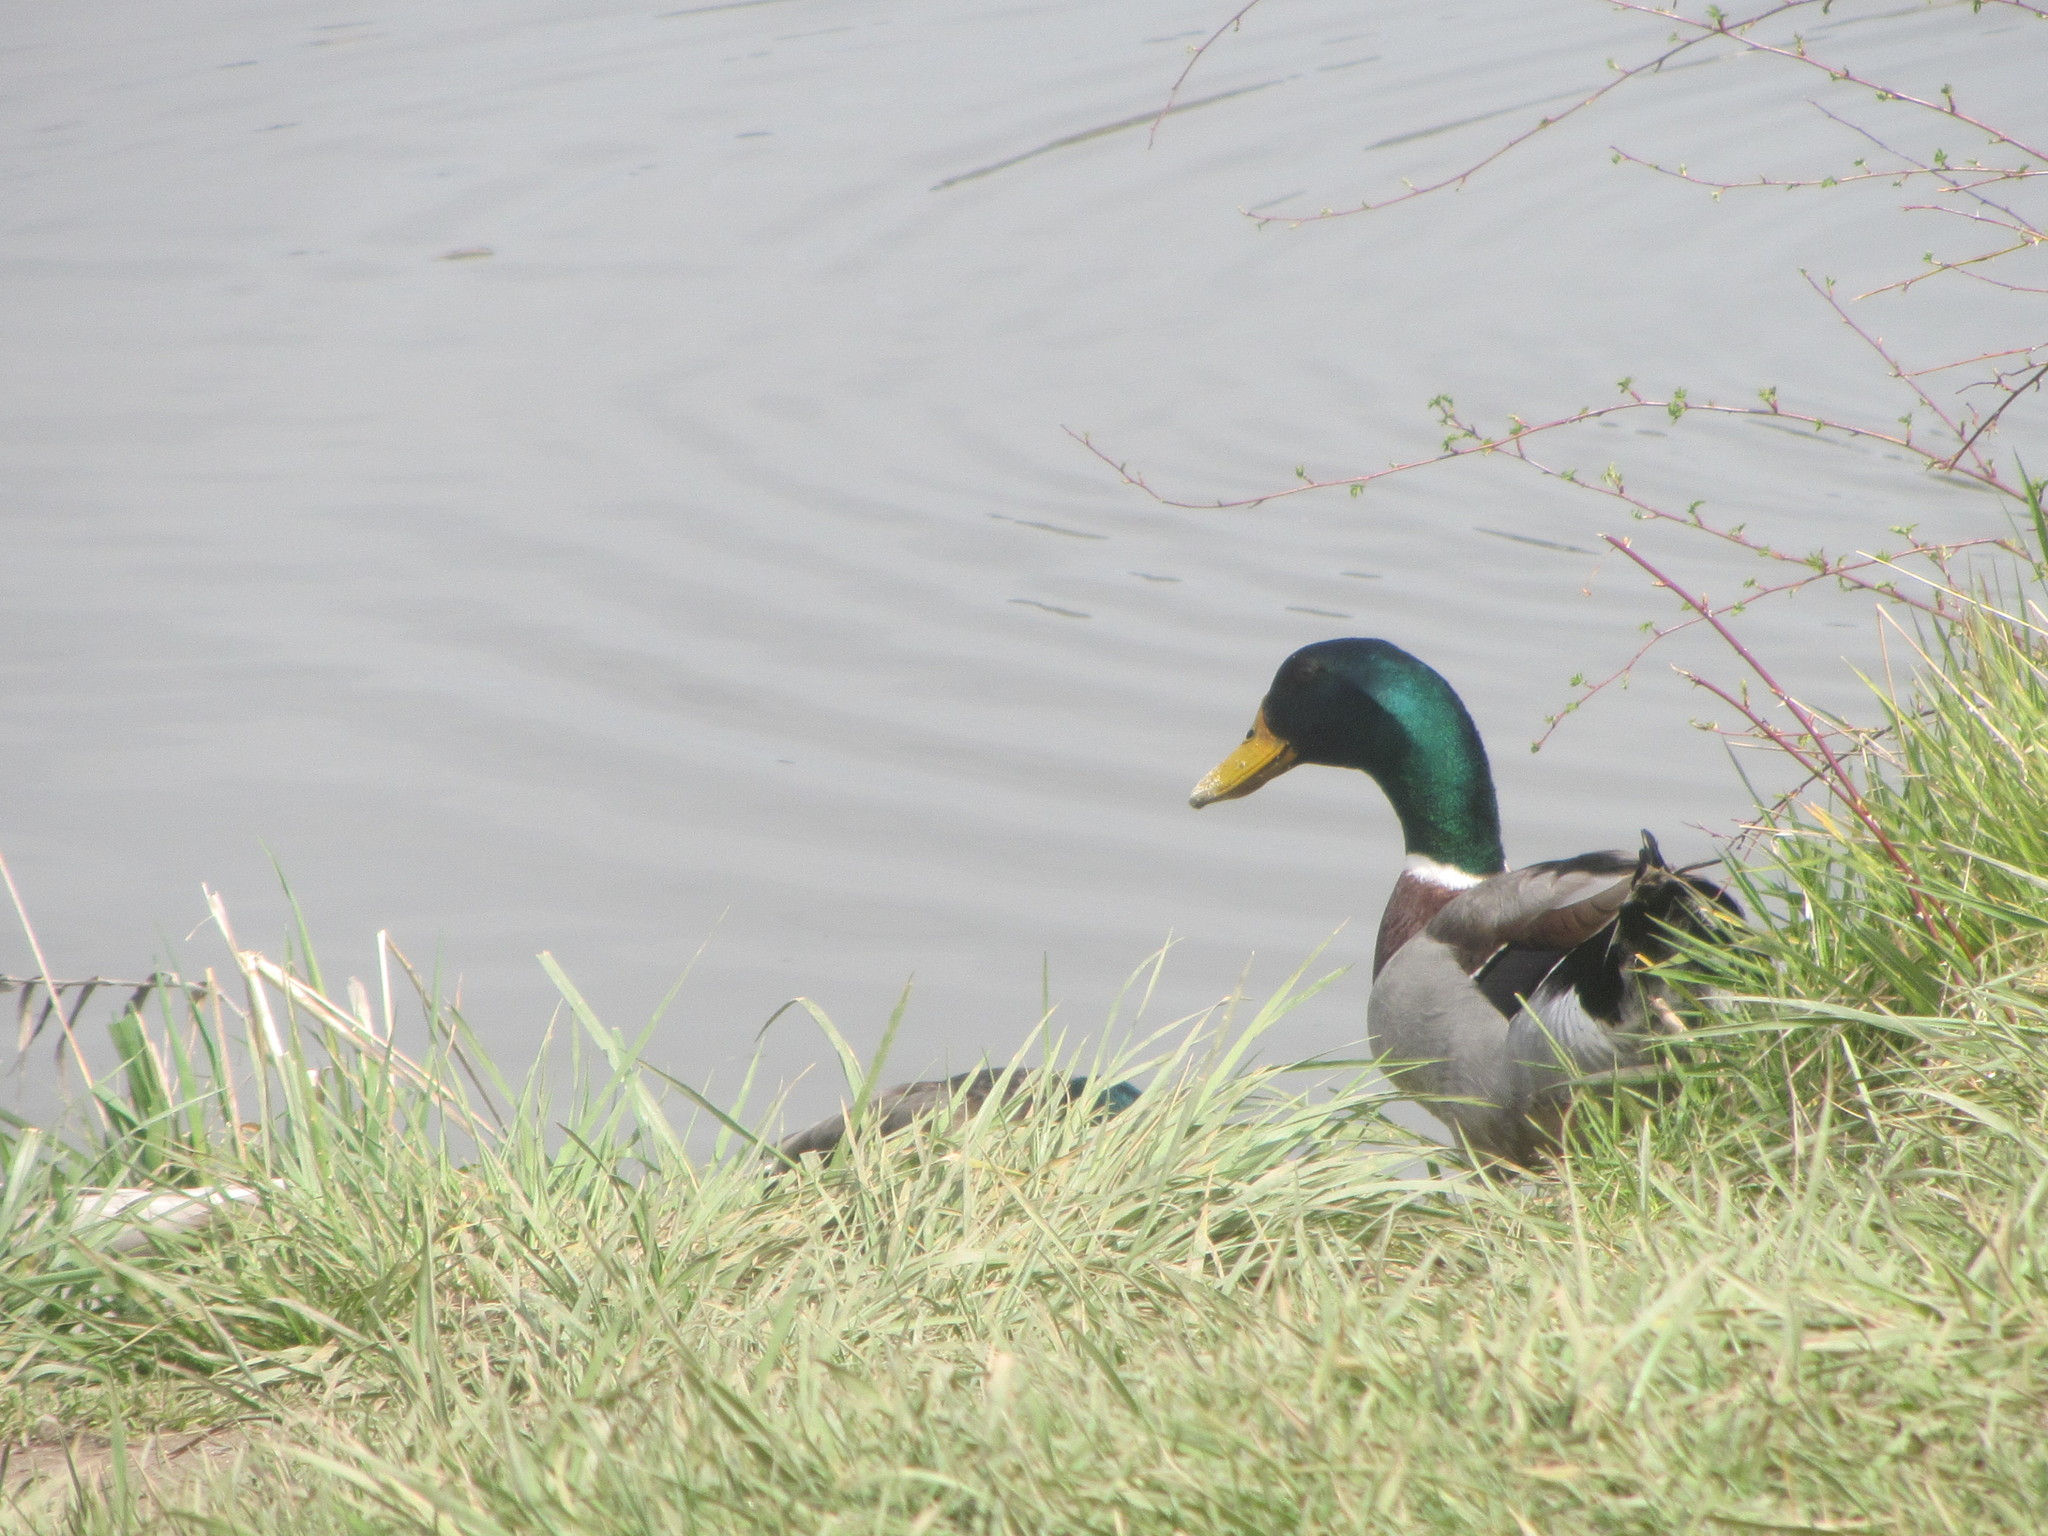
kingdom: Animalia
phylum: Chordata
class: Aves
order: Anseriformes
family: Anatidae
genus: Anas
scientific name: Anas platyrhynchos
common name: Mallard
